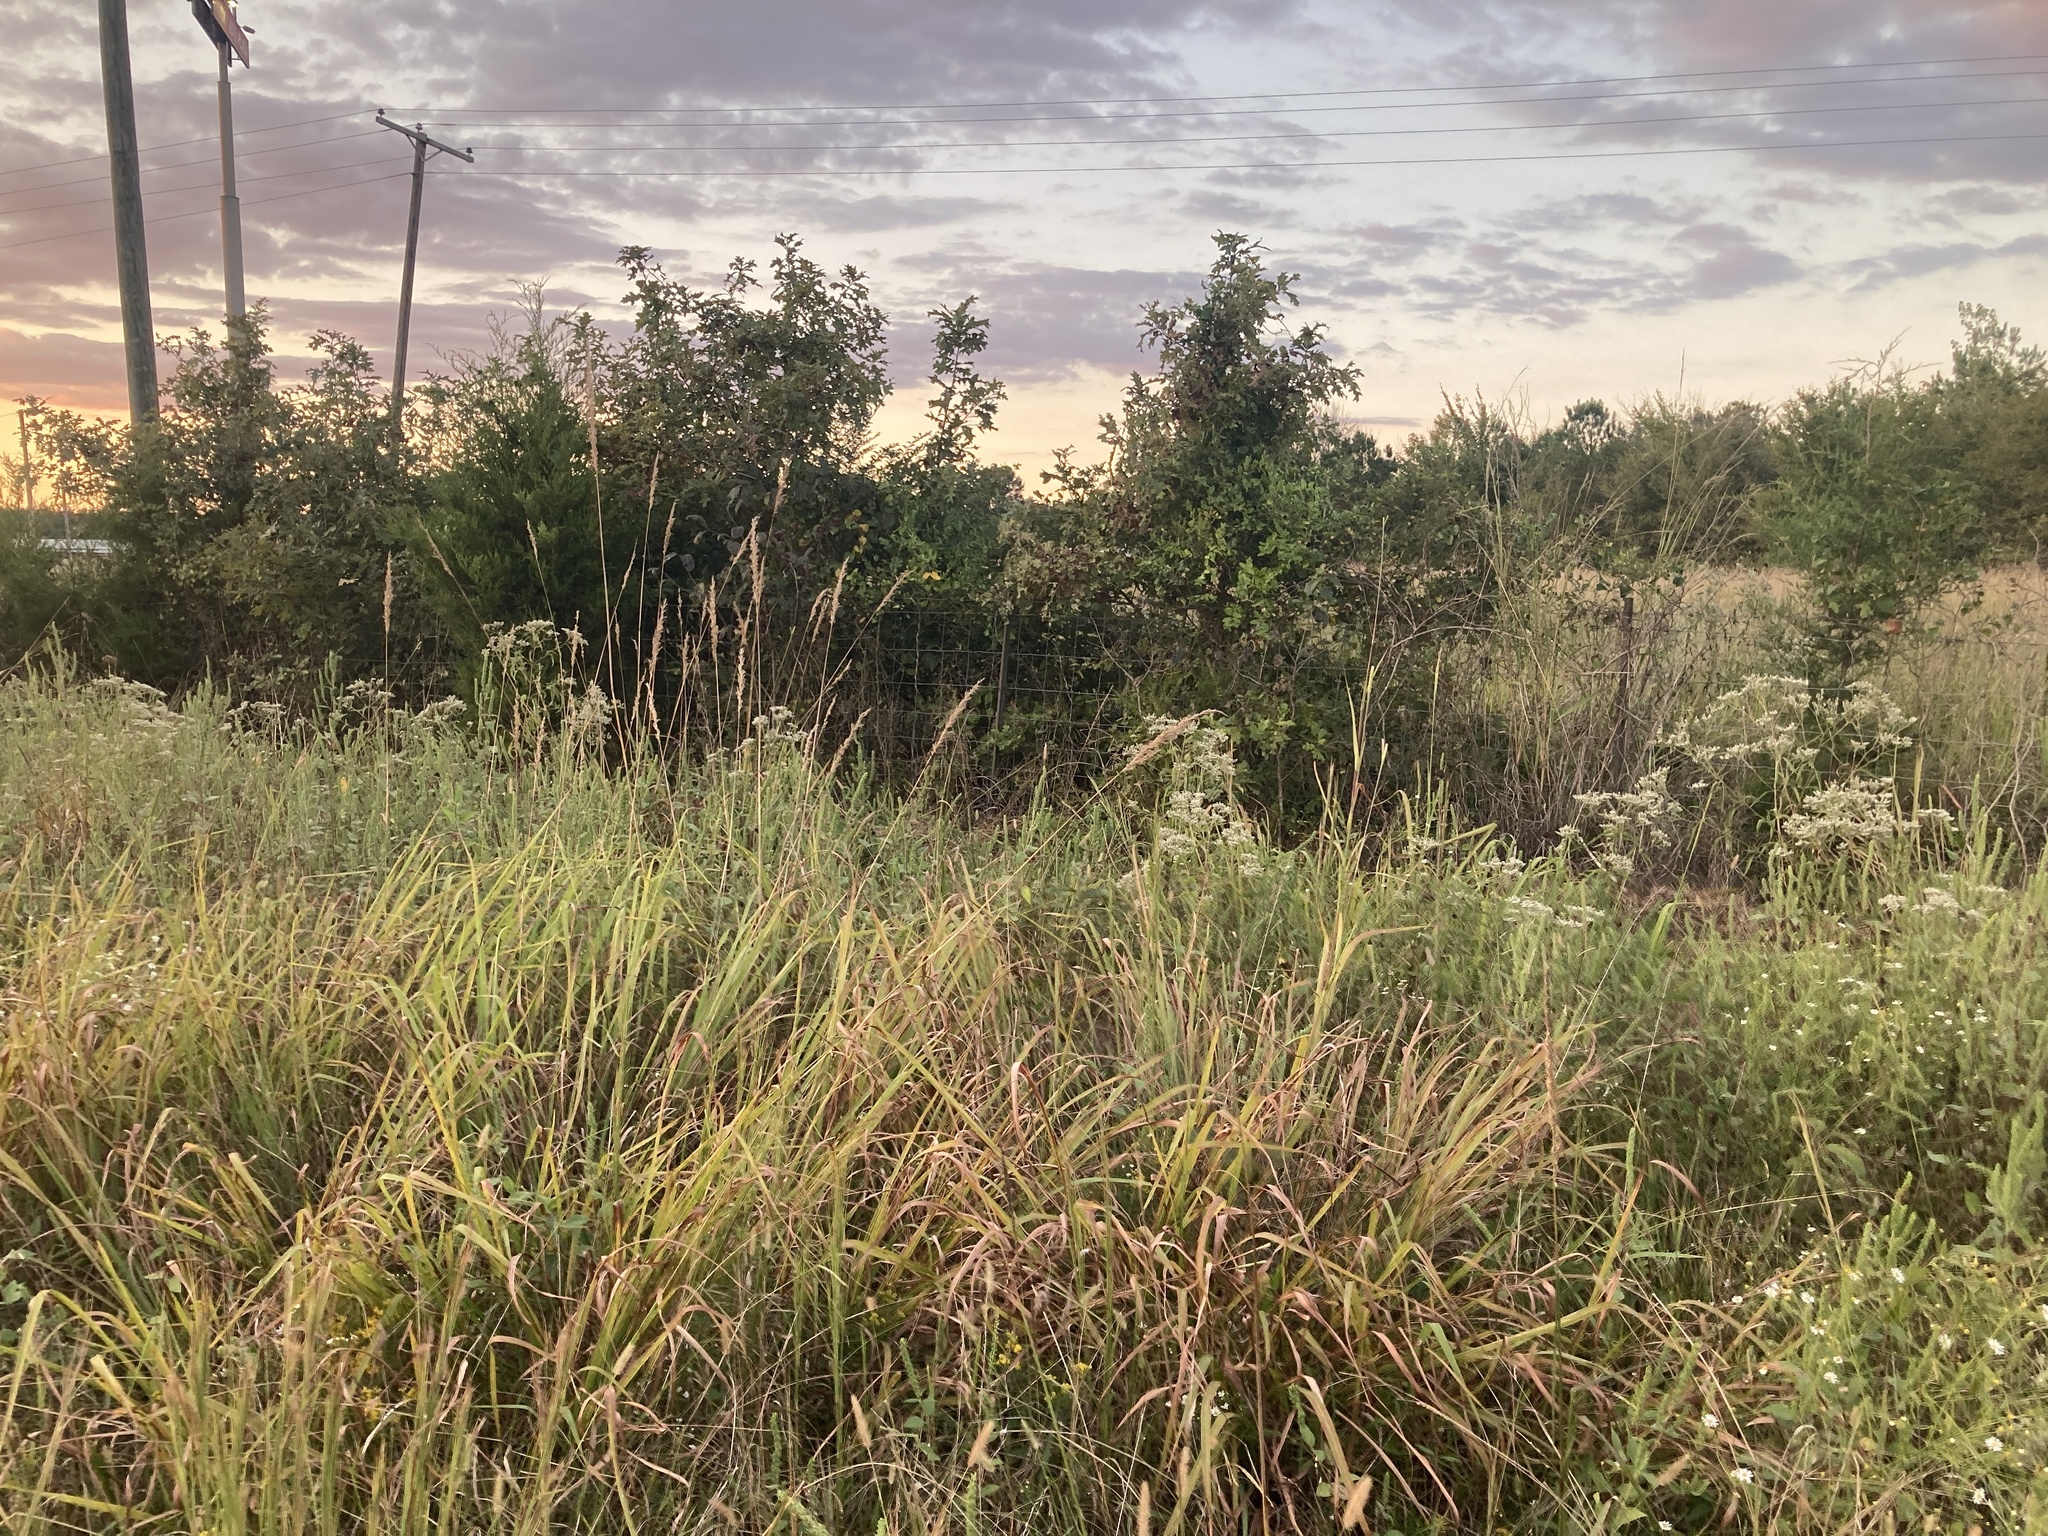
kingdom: Plantae
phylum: Tracheophyta
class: Liliopsida
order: Poales
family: Poaceae
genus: Sorghastrum
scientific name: Sorghastrum nutans
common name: Indian grass
